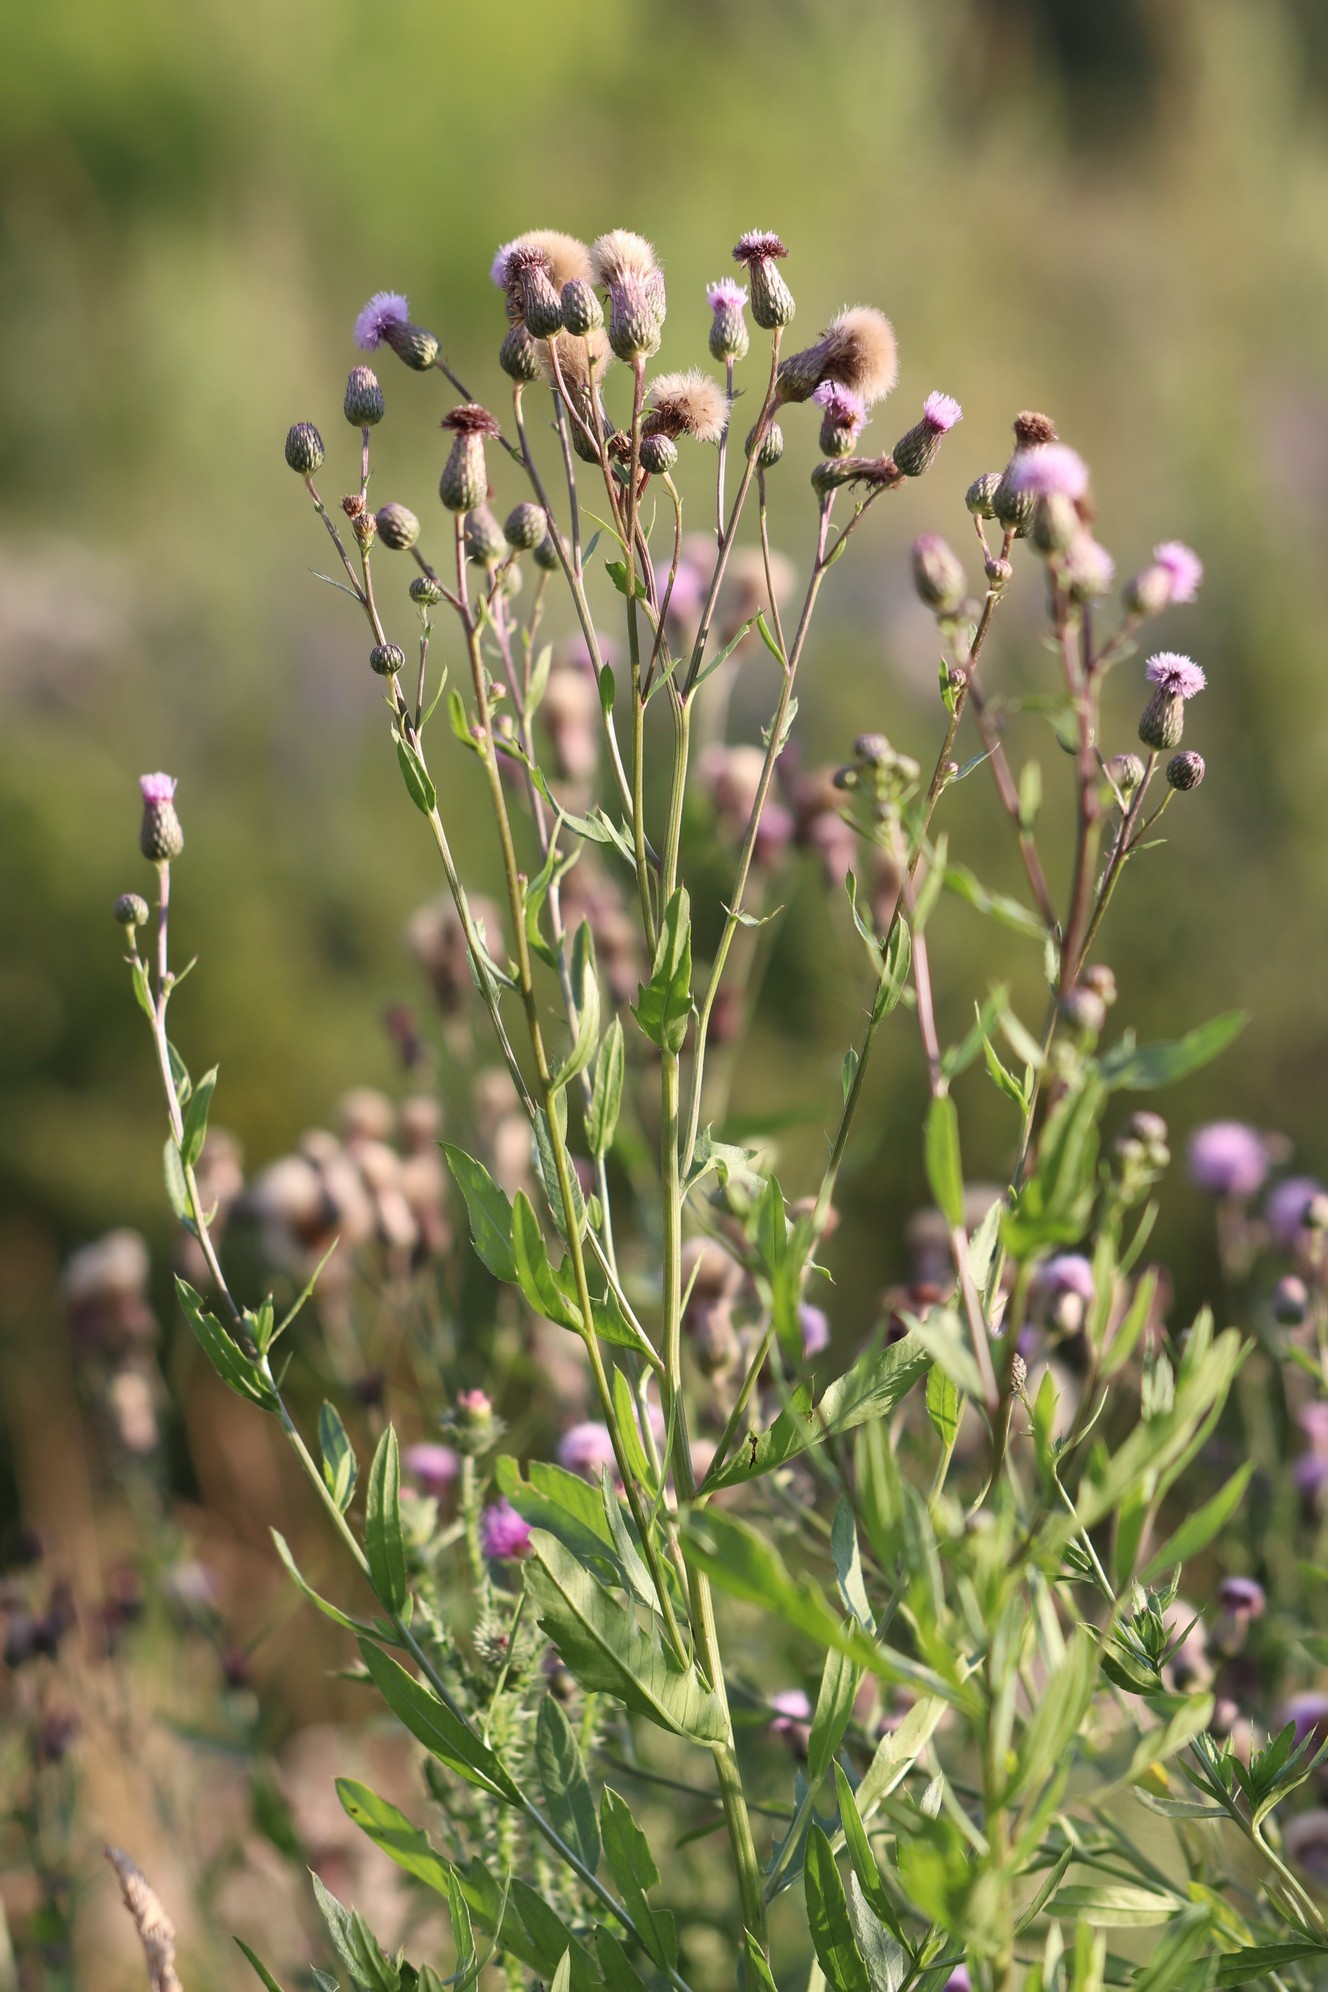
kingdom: Plantae
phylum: Tracheophyta
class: Magnoliopsida
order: Asterales
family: Asteraceae
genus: Cirsium
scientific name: Cirsium arvense
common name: Creeping thistle
